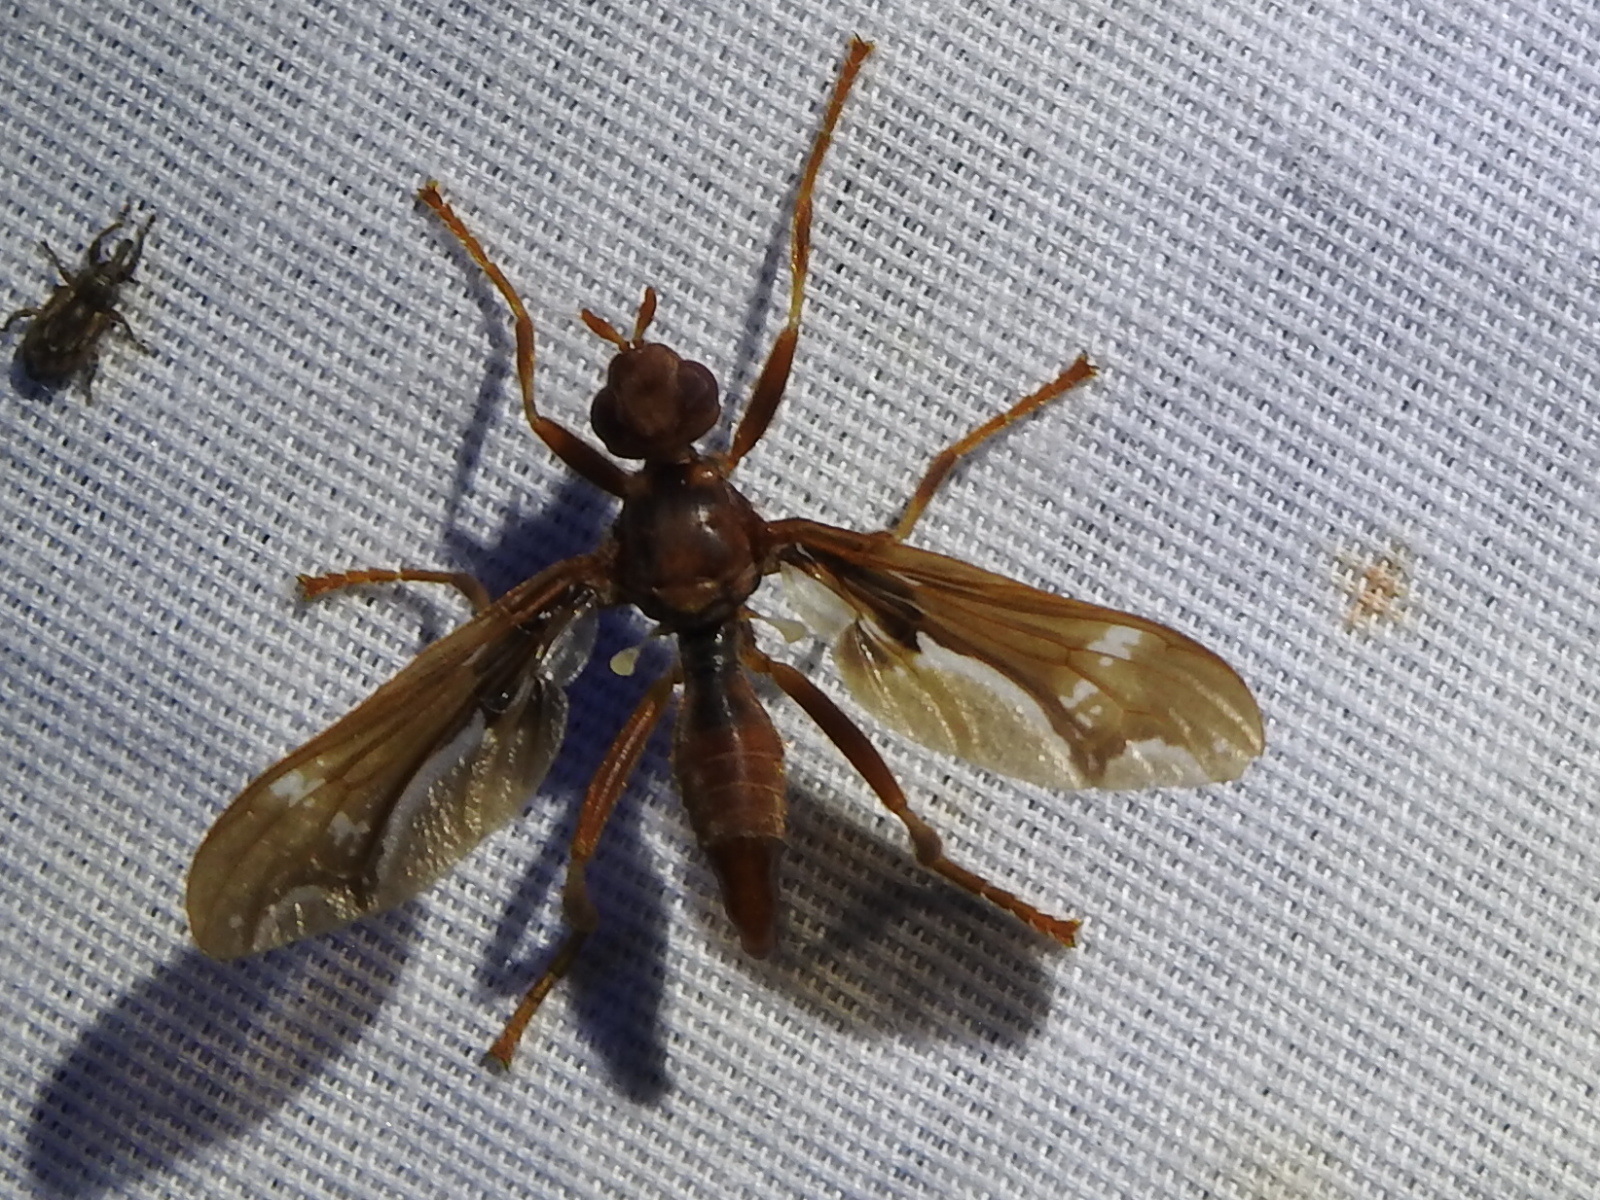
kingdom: Animalia
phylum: Arthropoda
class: Insecta
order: Diptera
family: Pyrgotidae
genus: Pyrgota
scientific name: Pyrgota undata
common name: Waved light fly
